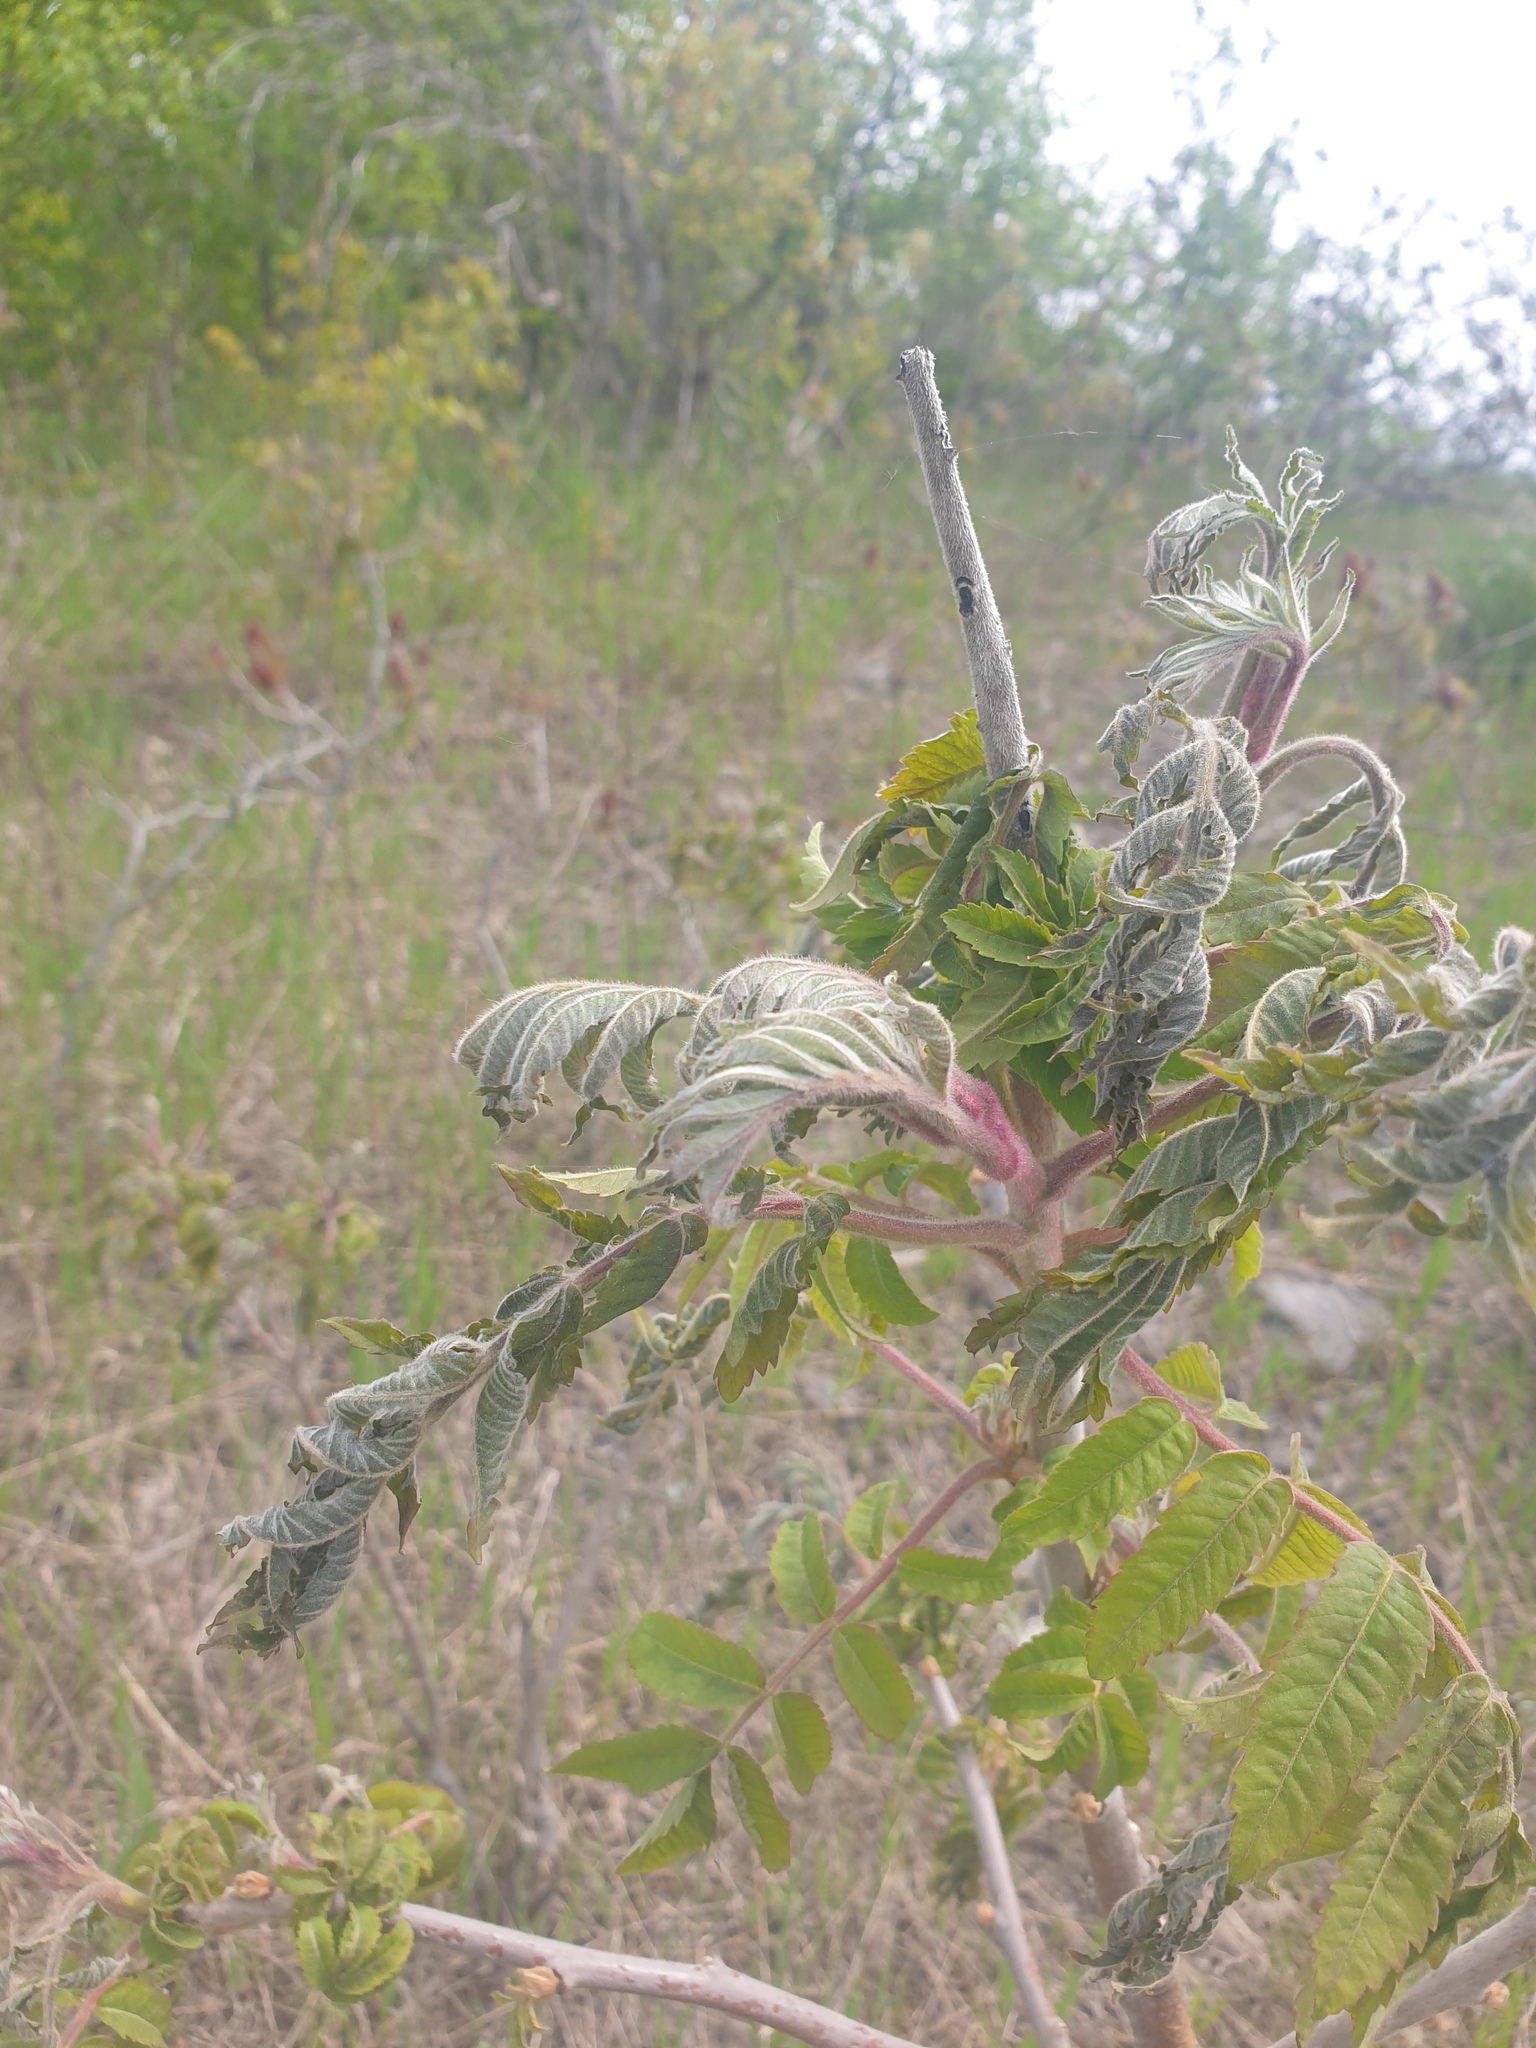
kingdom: Plantae
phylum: Tracheophyta
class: Magnoliopsida
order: Sapindales
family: Anacardiaceae
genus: Rhus
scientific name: Rhus typhina
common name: Staghorn sumac
